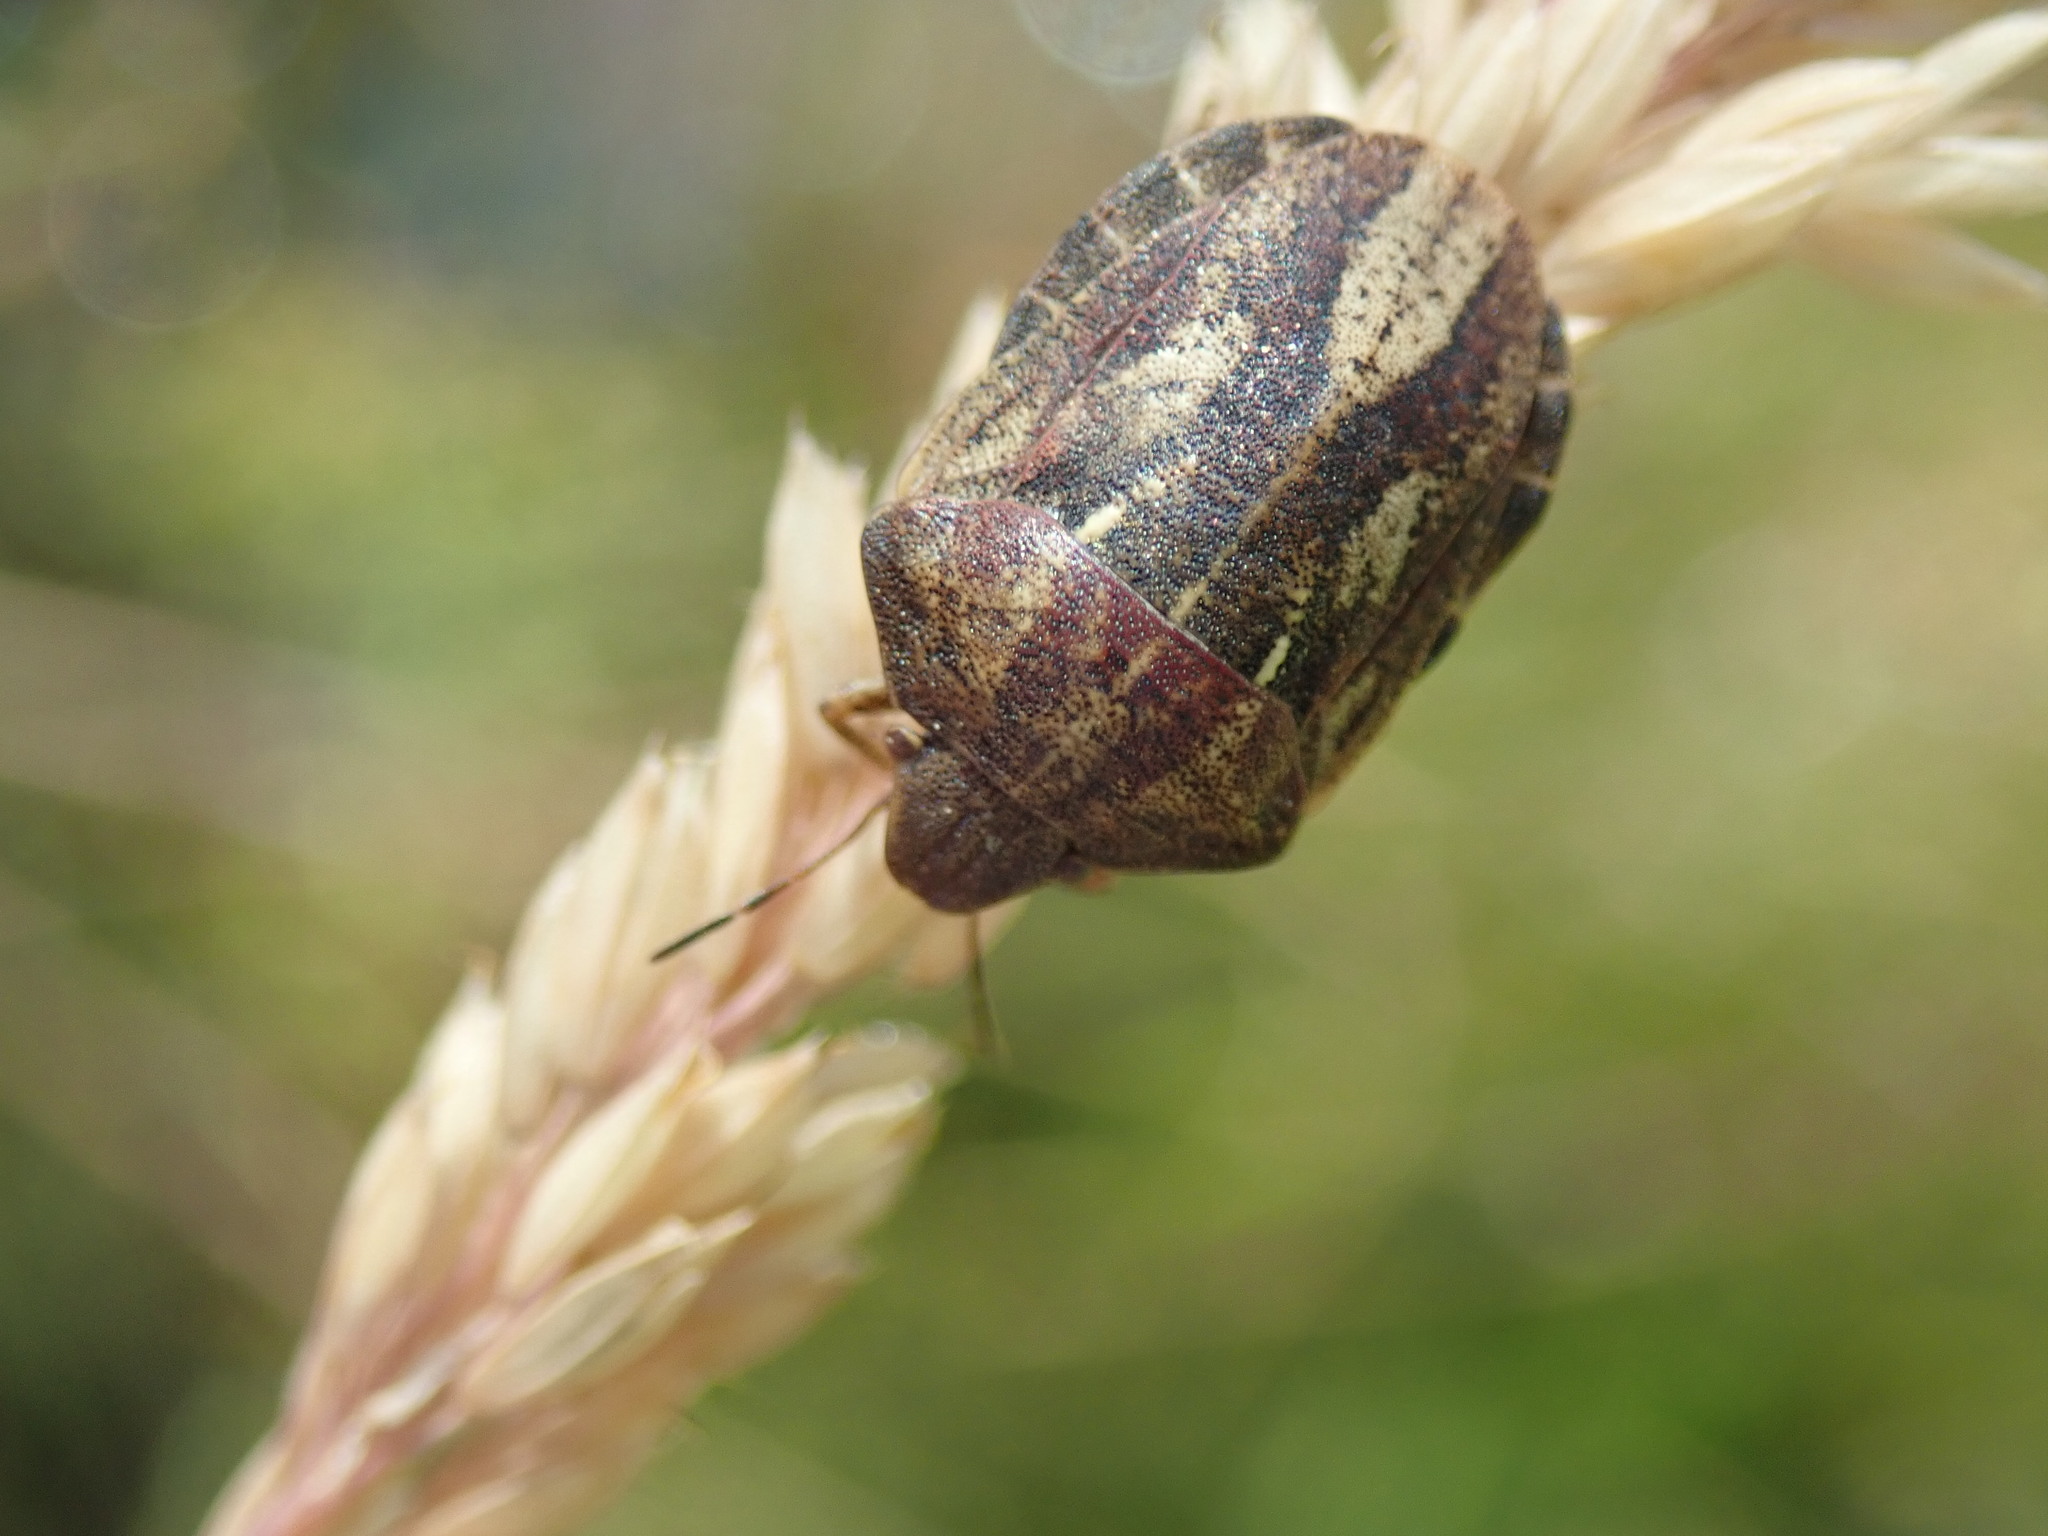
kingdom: Animalia
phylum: Arthropoda
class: Insecta
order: Hemiptera
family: Scutelleridae
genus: Eurygaster
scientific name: Eurygaster maura
